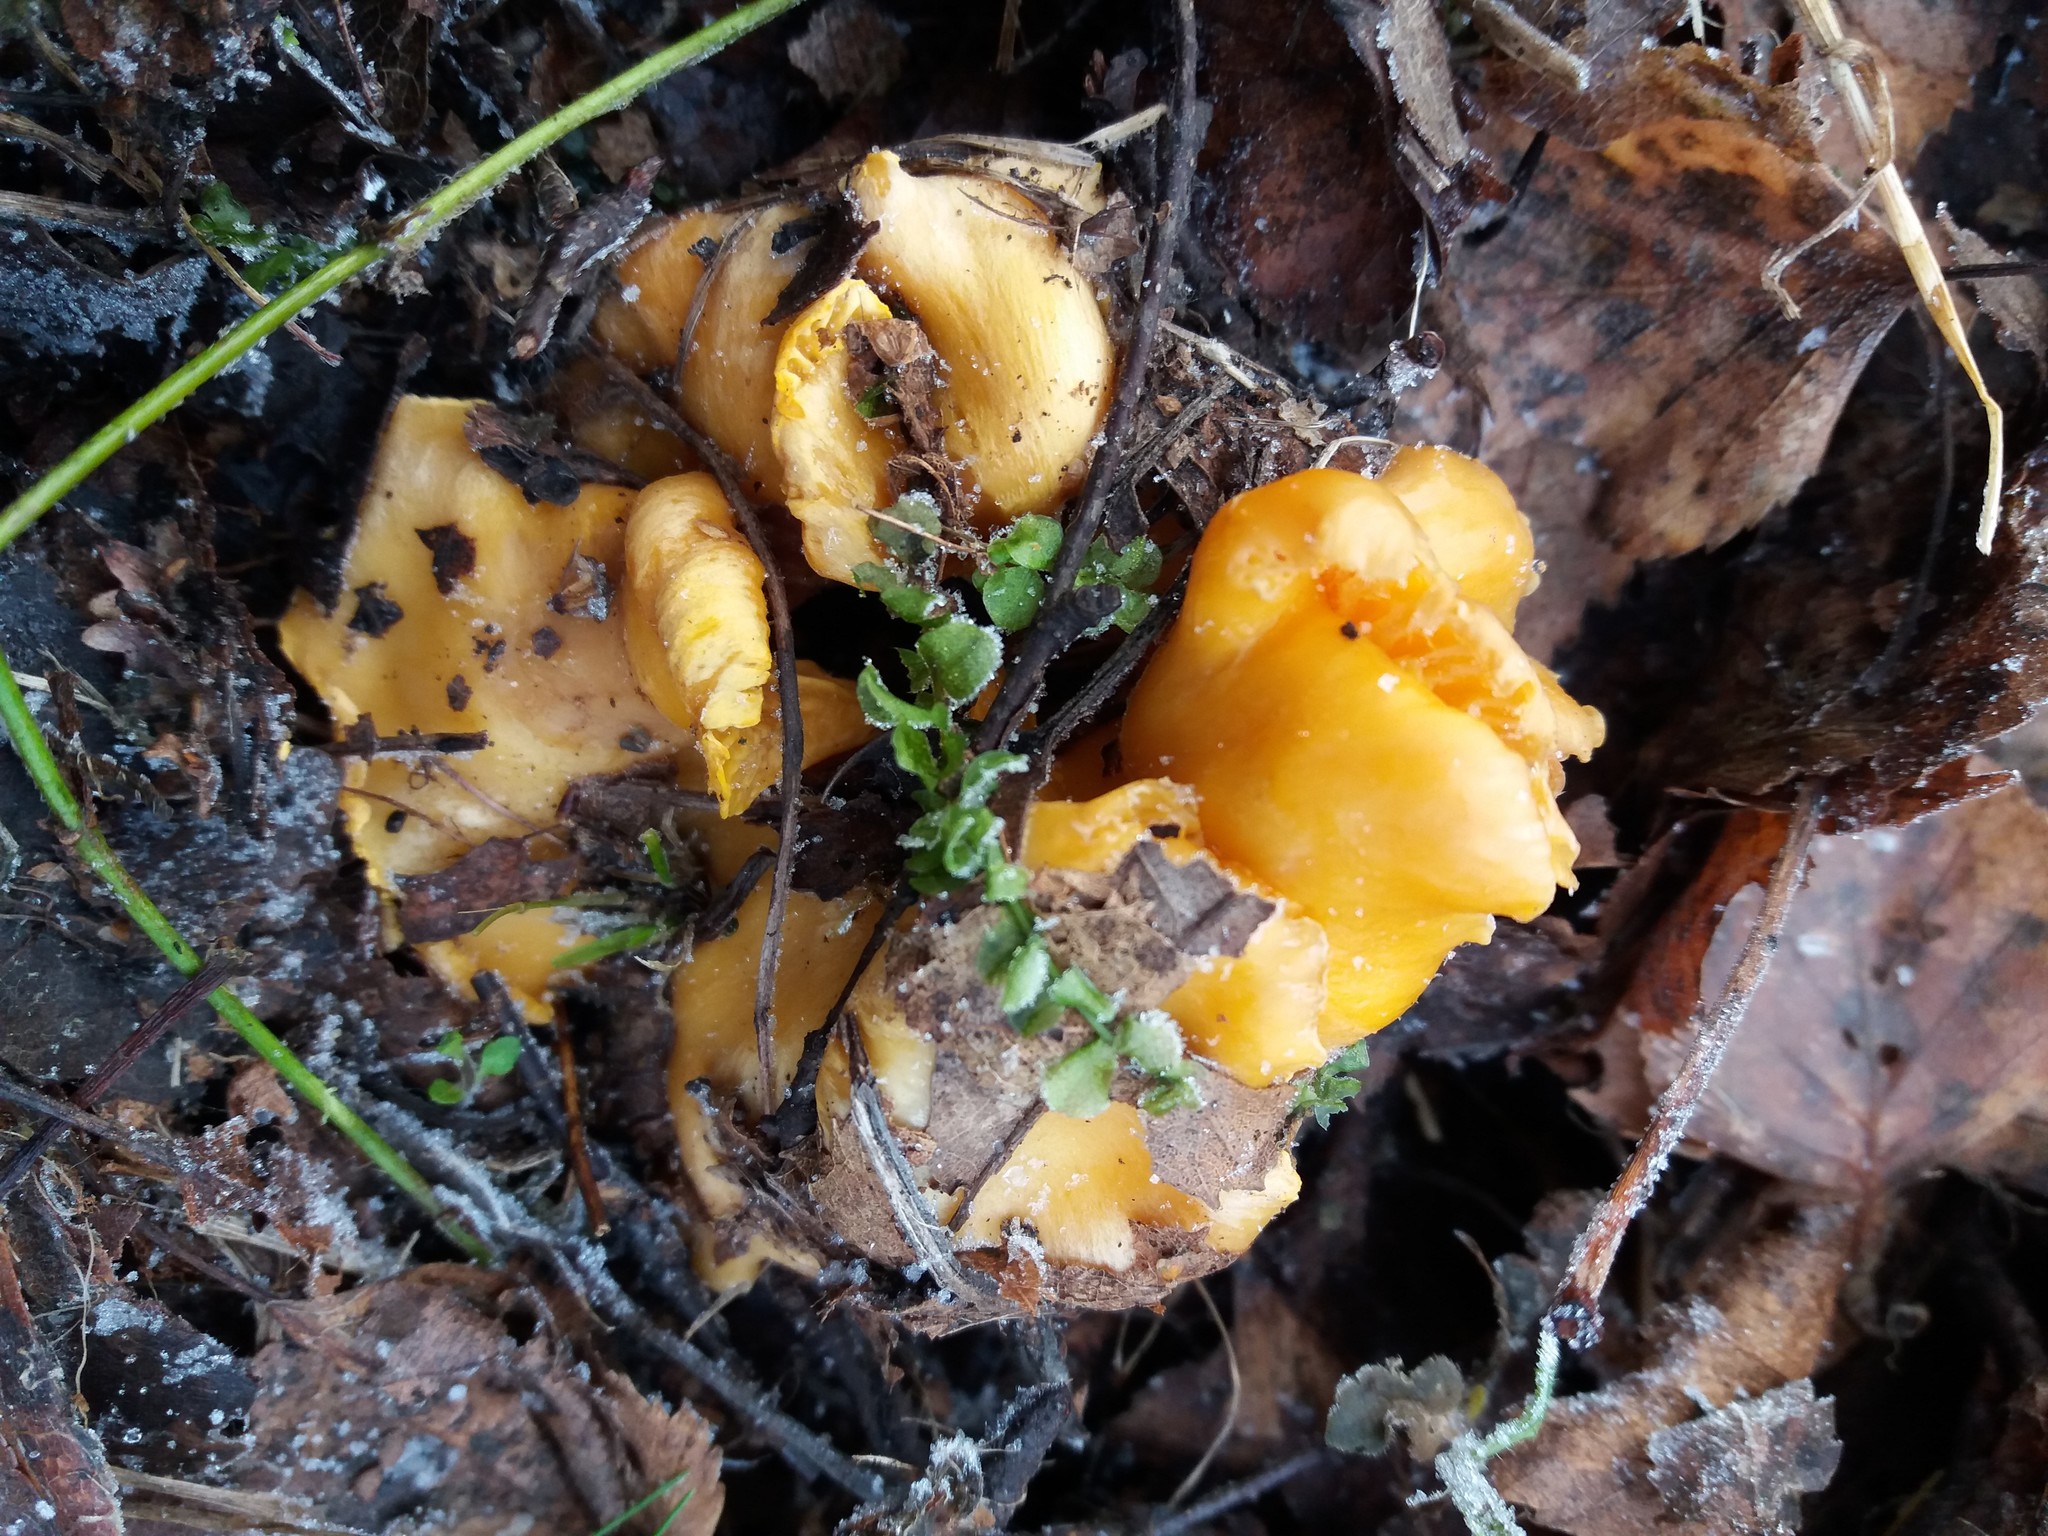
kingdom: Fungi
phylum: Basidiomycota
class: Agaricomycetes
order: Cantharellales
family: Hydnaceae
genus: Cantharellus
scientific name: Cantharellus cibarius
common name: Chanterelle
